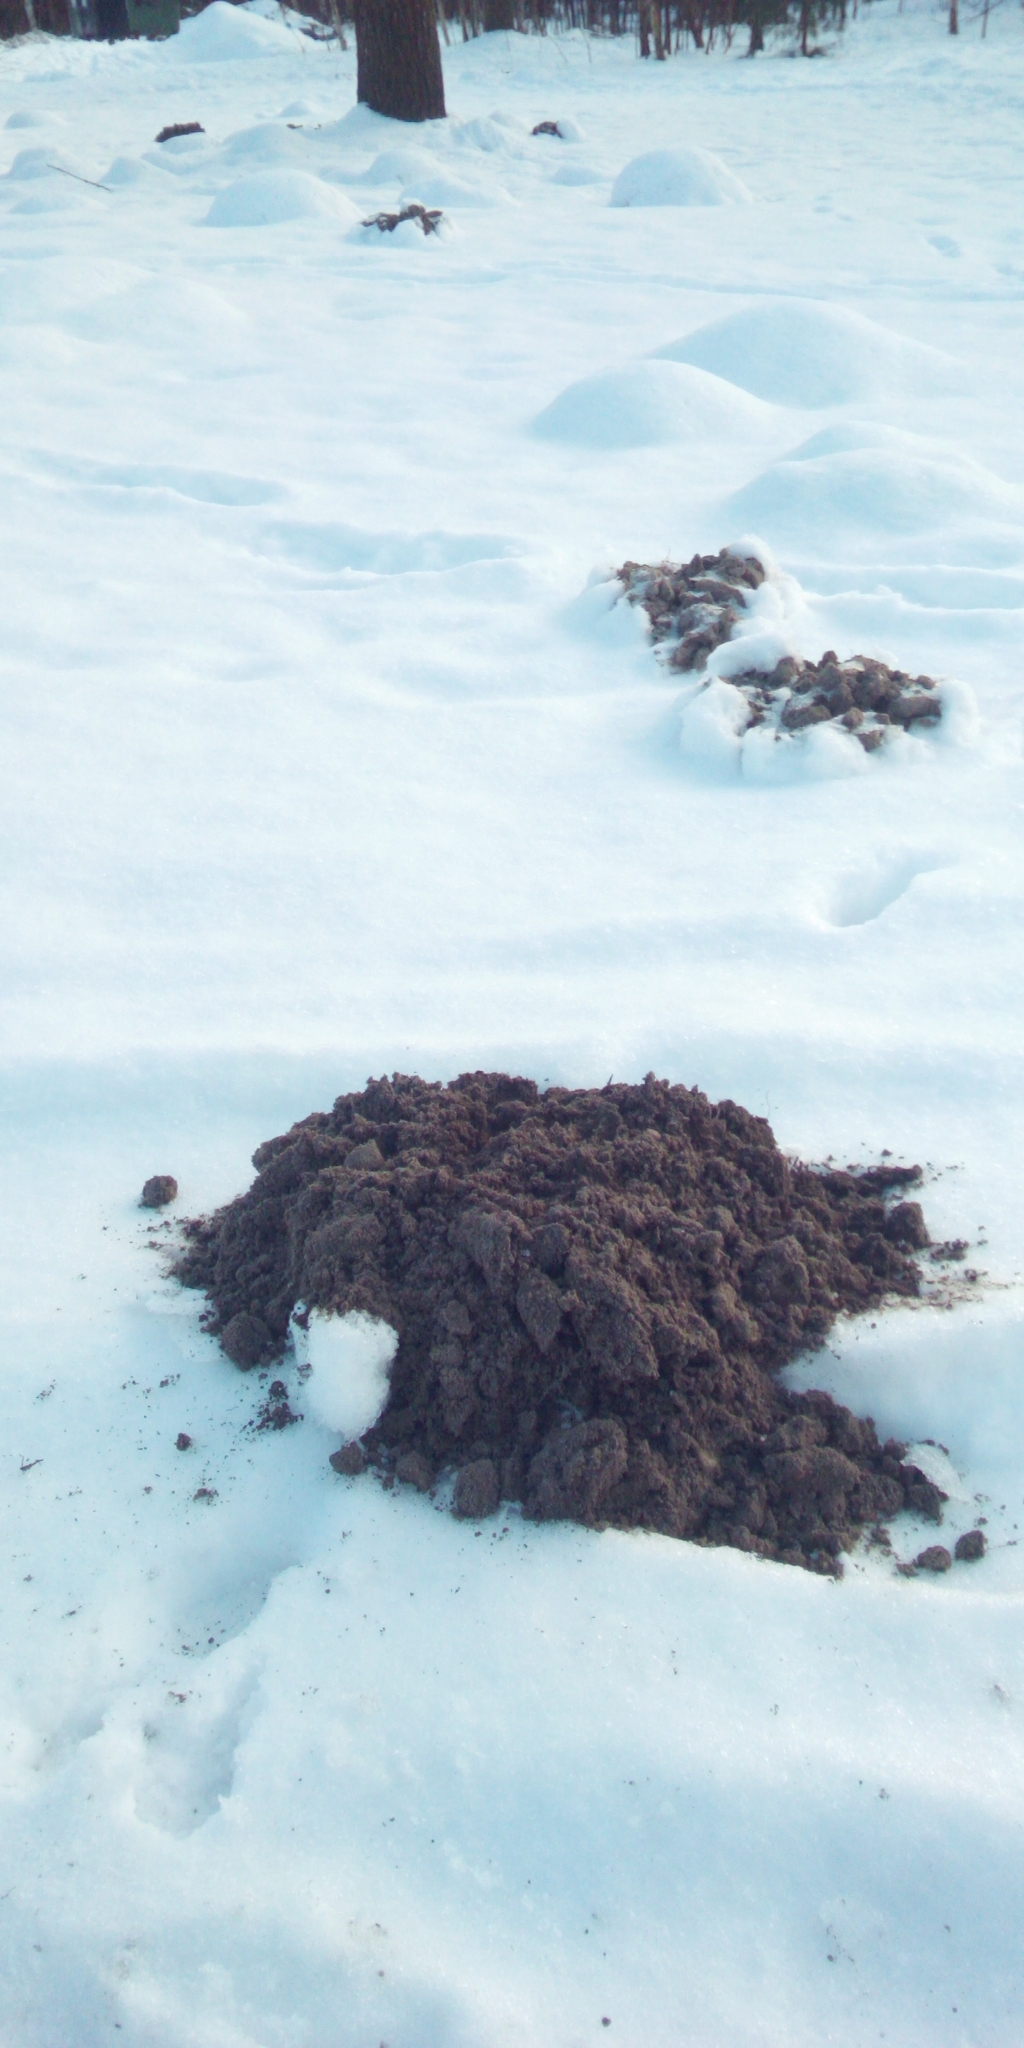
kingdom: Animalia
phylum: Chordata
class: Mammalia
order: Soricomorpha
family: Talpidae
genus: Talpa
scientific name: Talpa europaea
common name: European mole
